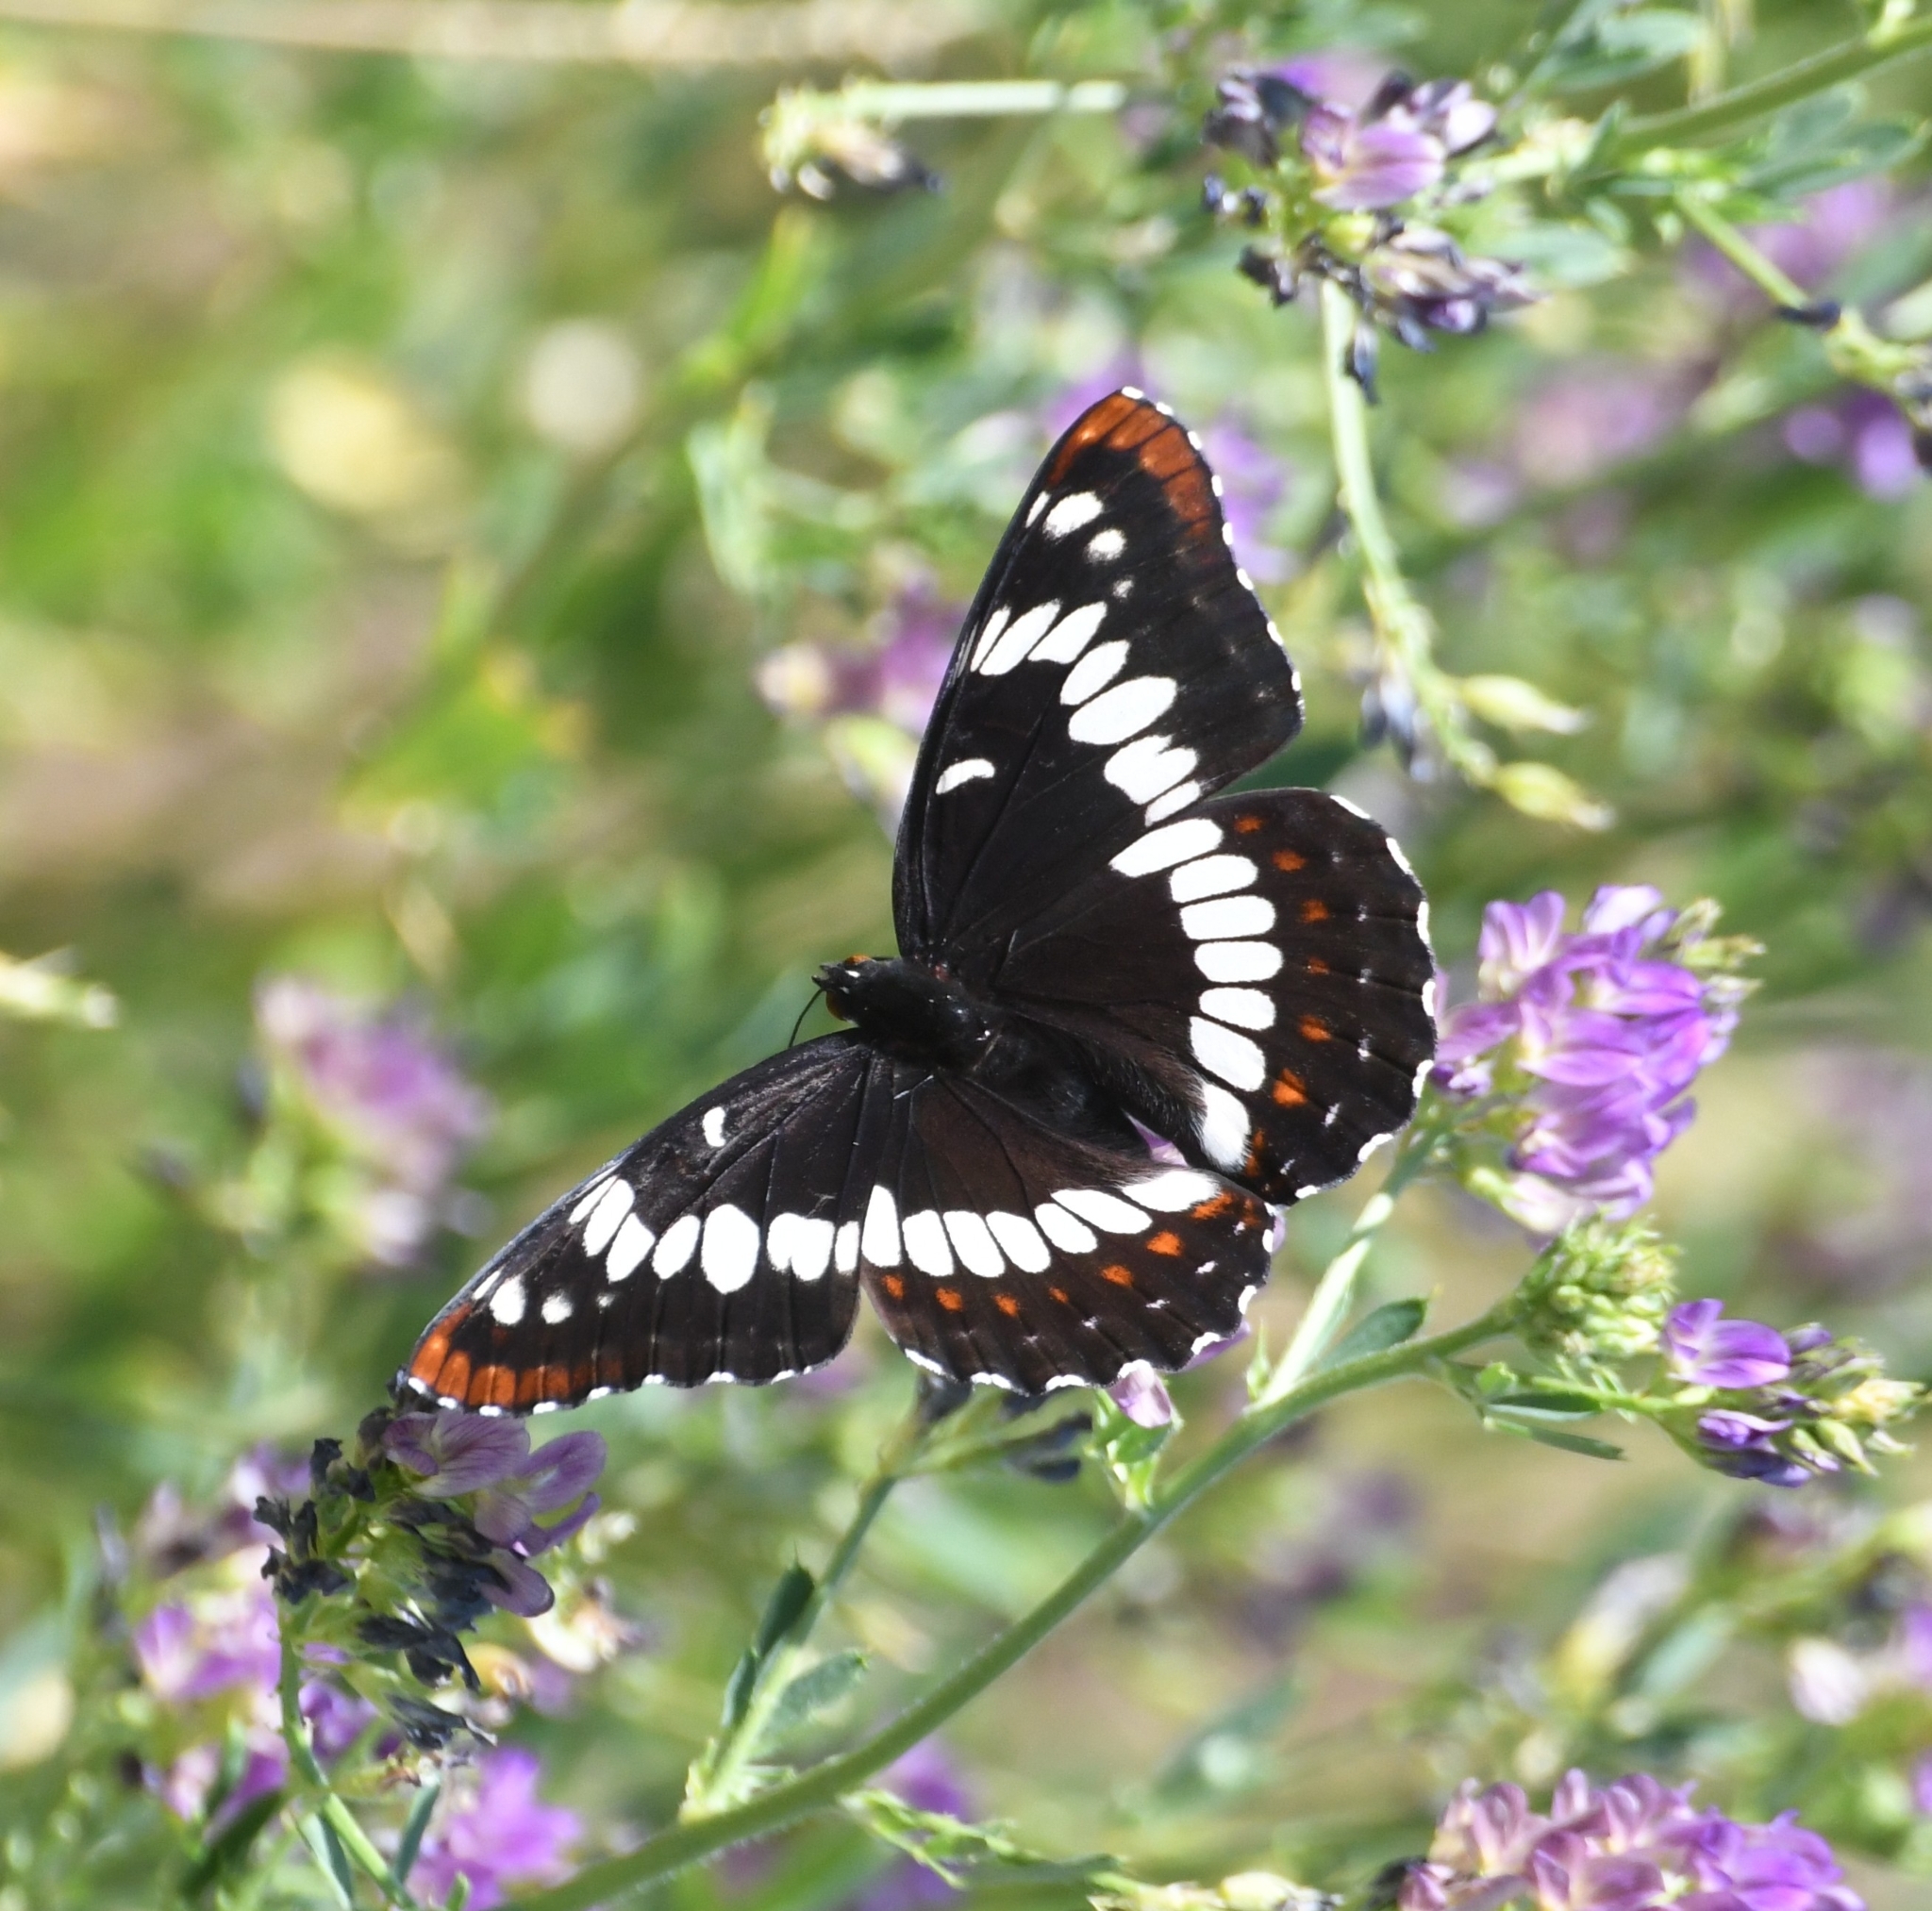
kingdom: Animalia
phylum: Arthropoda
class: Insecta
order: Lepidoptera
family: Nymphalidae
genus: Limenitis
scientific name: Limenitis lorquini
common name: Lorquin's admiral
